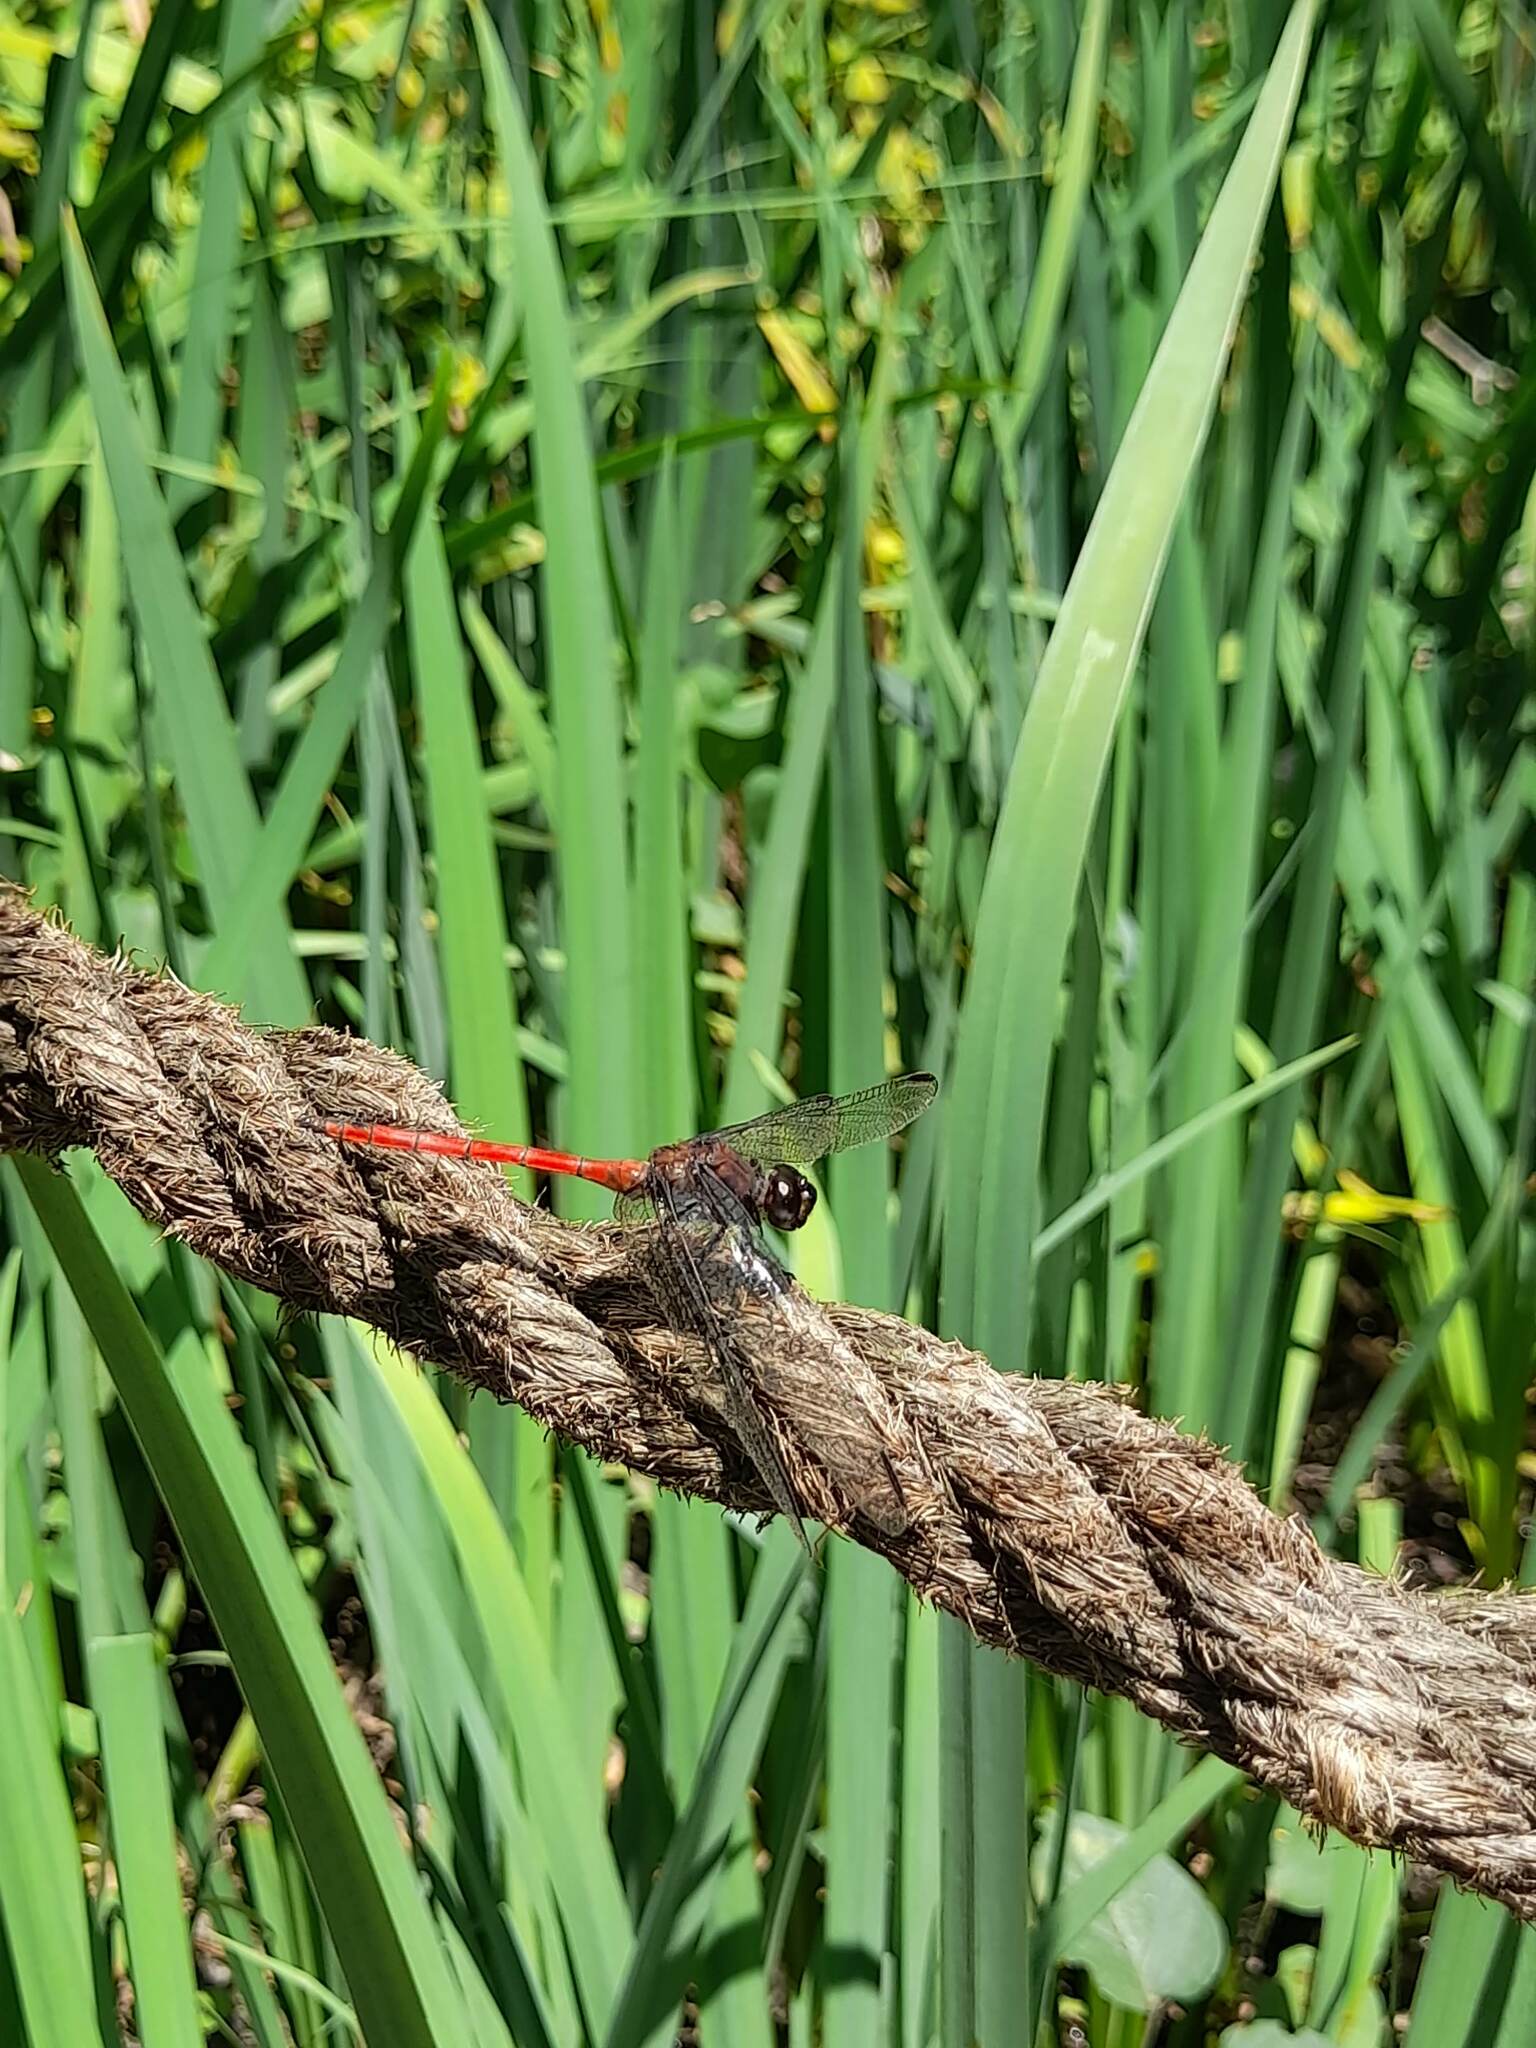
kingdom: Animalia
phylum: Arthropoda
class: Insecta
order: Odonata
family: Libellulidae
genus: Orthemis
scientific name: Orthemis ambinigra
